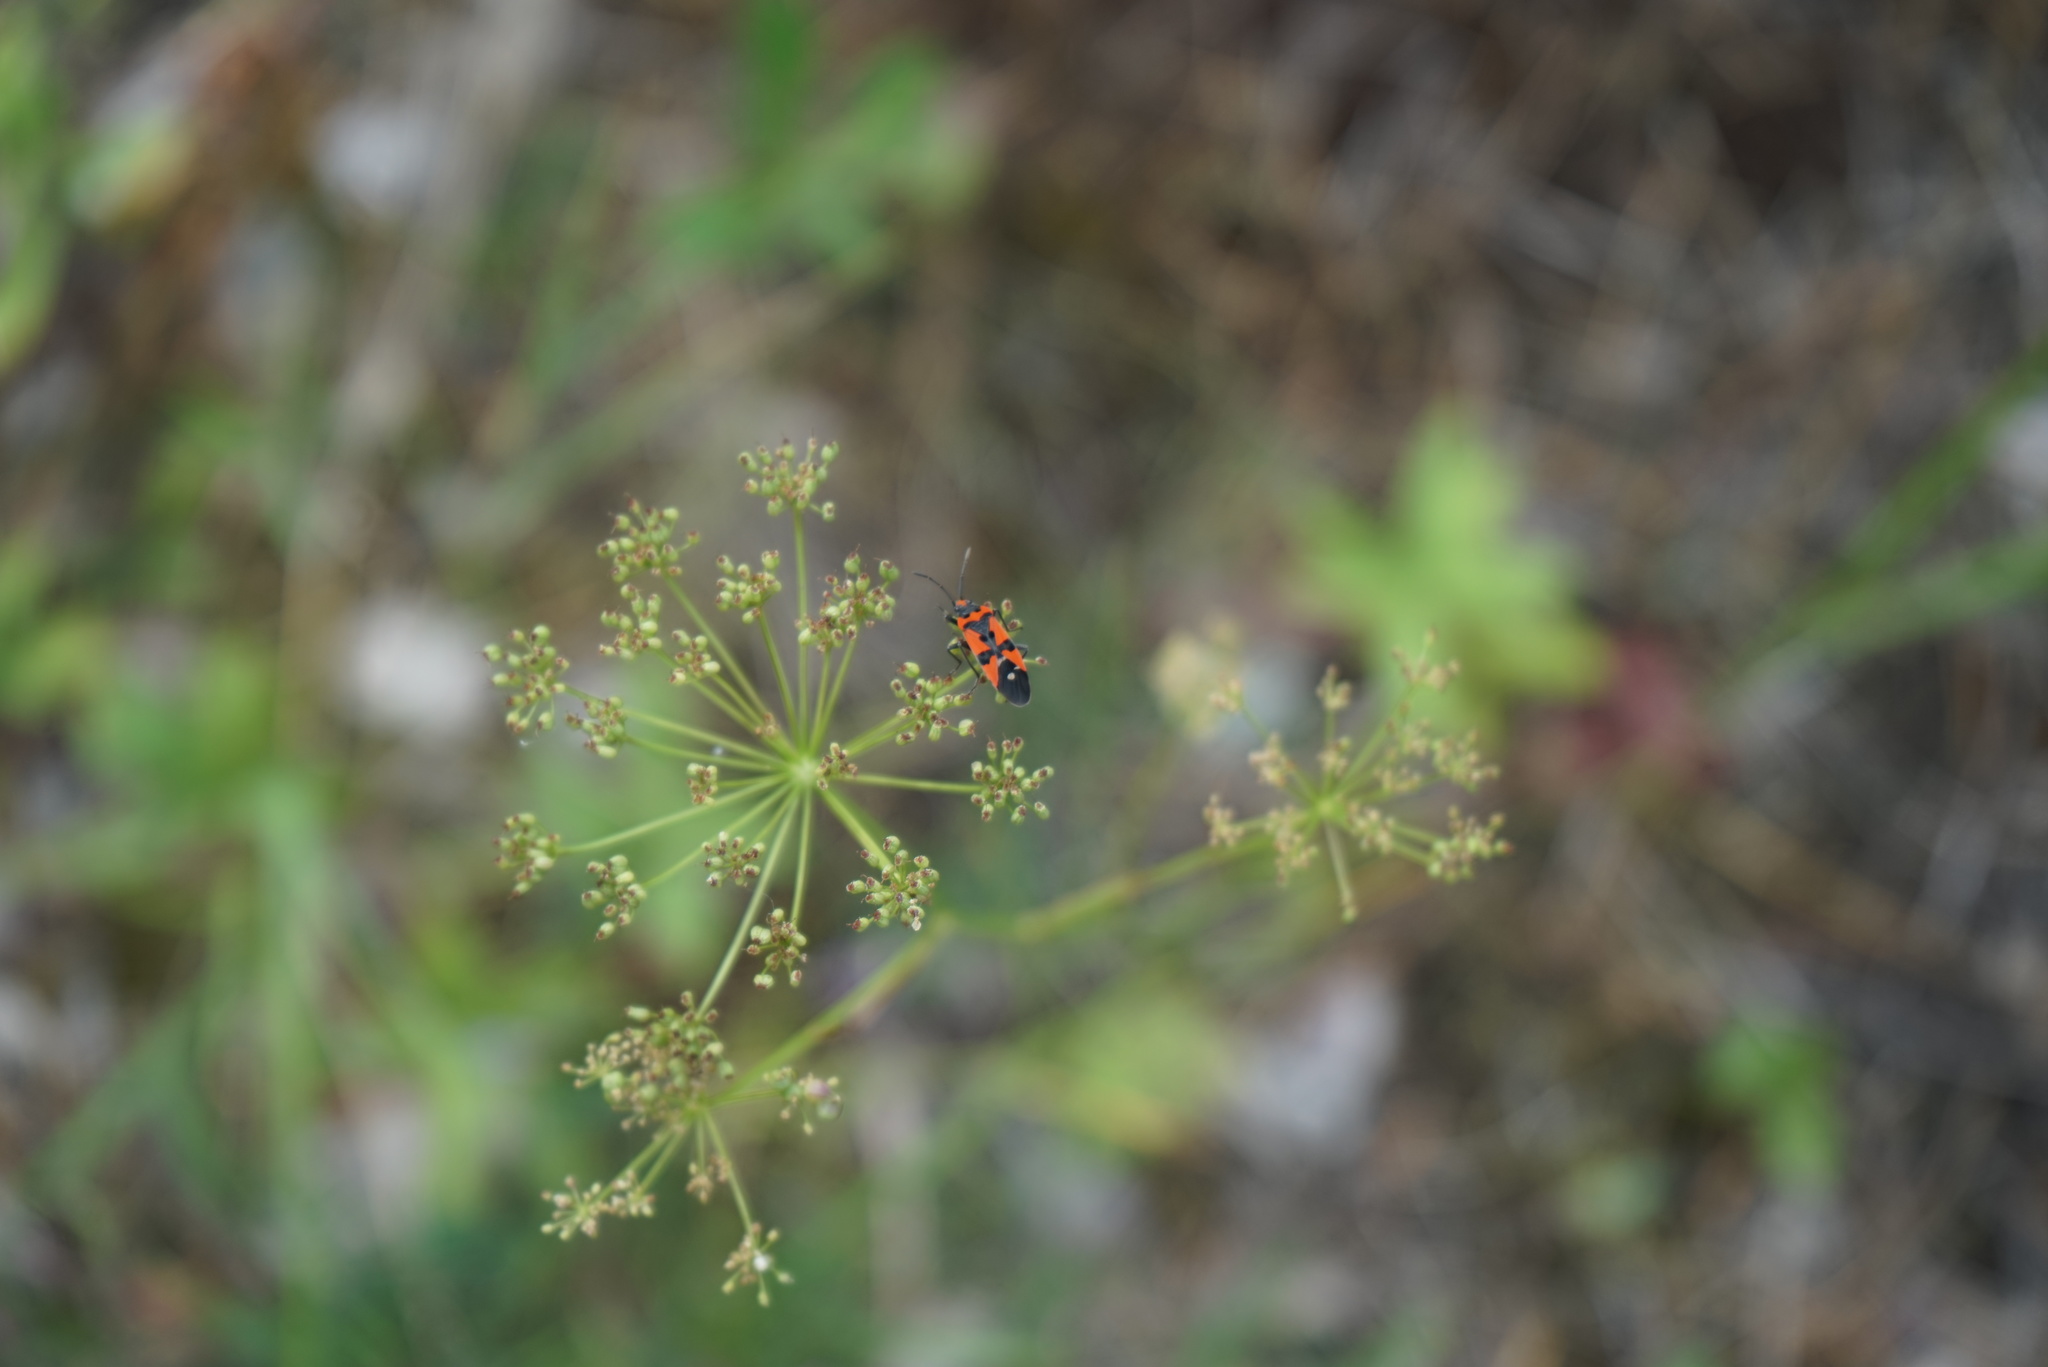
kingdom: Animalia
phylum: Arthropoda
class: Insecta
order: Hemiptera
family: Lygaeidae
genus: Lygaeus
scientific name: Lygaeus equestris
